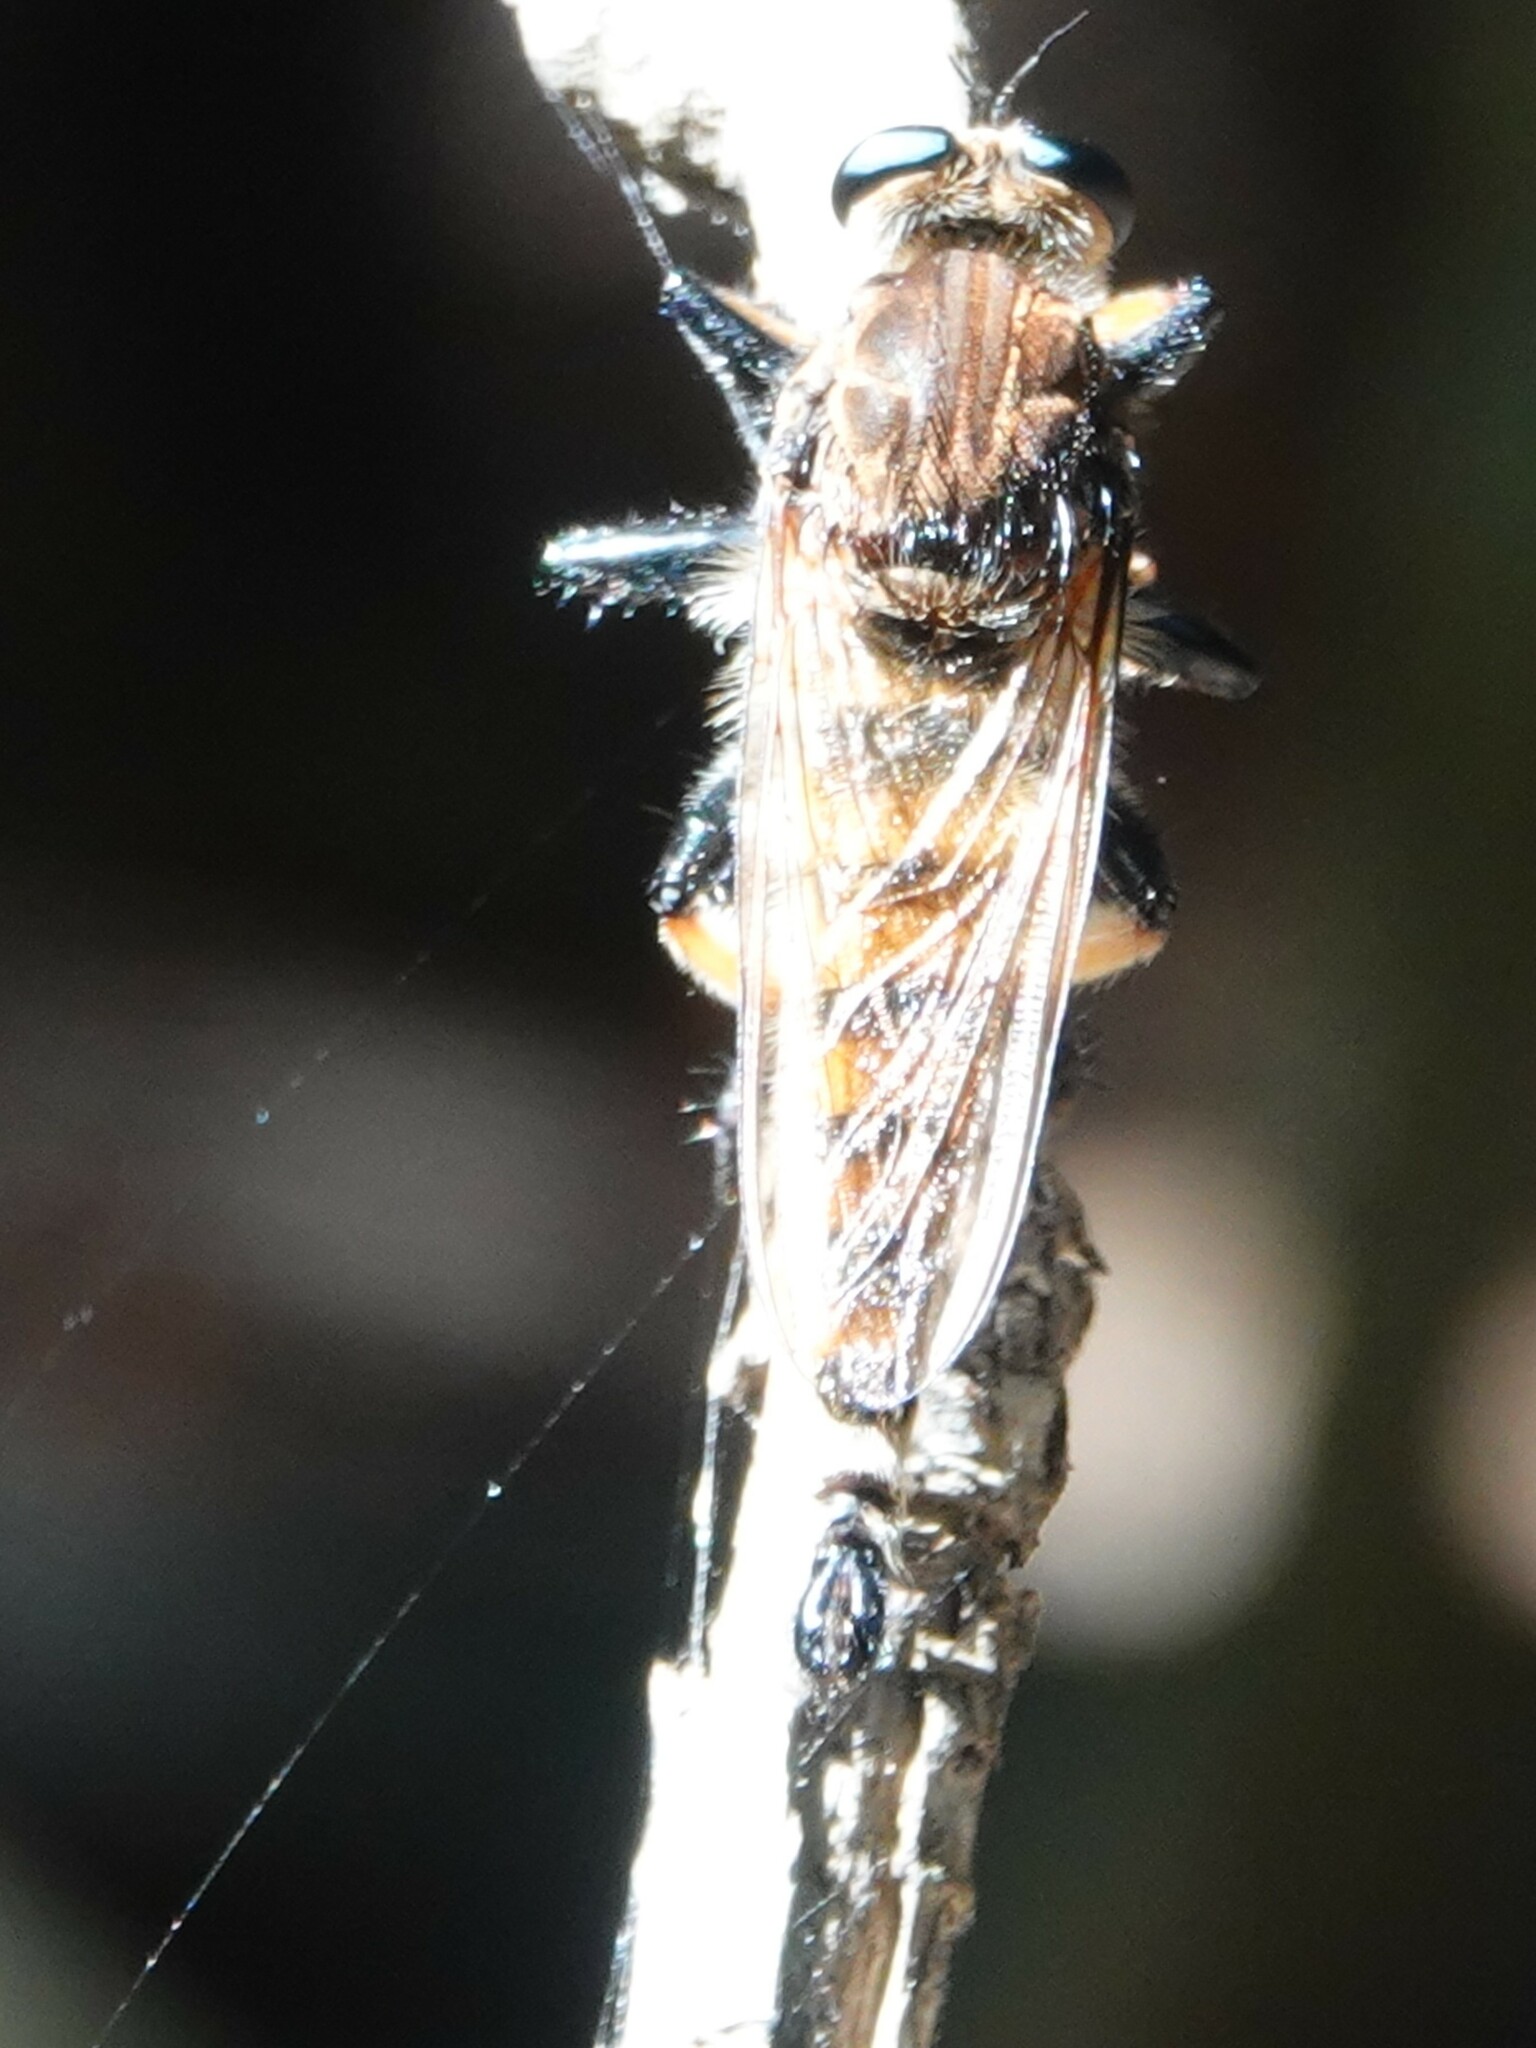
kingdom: Animalia
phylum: Arthropoda
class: Insecta
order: Diptera
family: Asilidae
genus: Promachus
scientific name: Promachus rufipes
